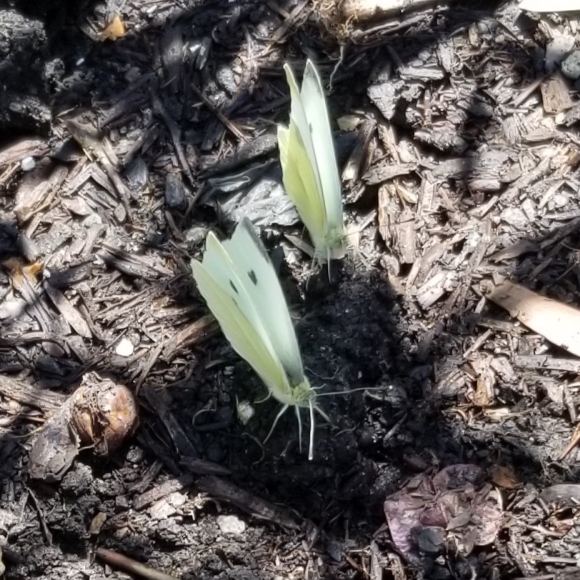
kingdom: Animalia
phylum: Arthropoda
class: Insecta
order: Lepidoptera
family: Pieridae
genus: Pieris
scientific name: Pieris rapae
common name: Small white
